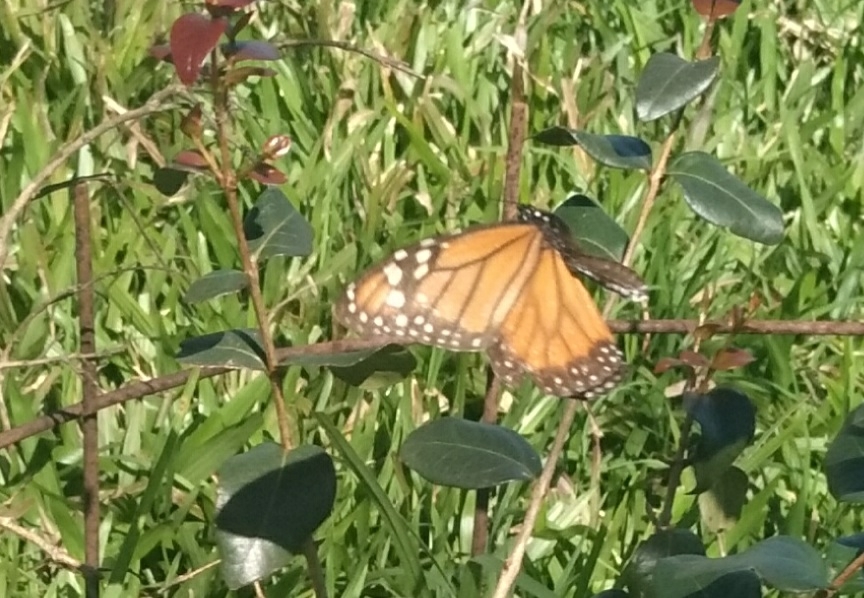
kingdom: Animalia
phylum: Arthropoda
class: Insecta
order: Lepidoptera
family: Nymphalidae
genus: Danaus
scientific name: Danaus erippus
